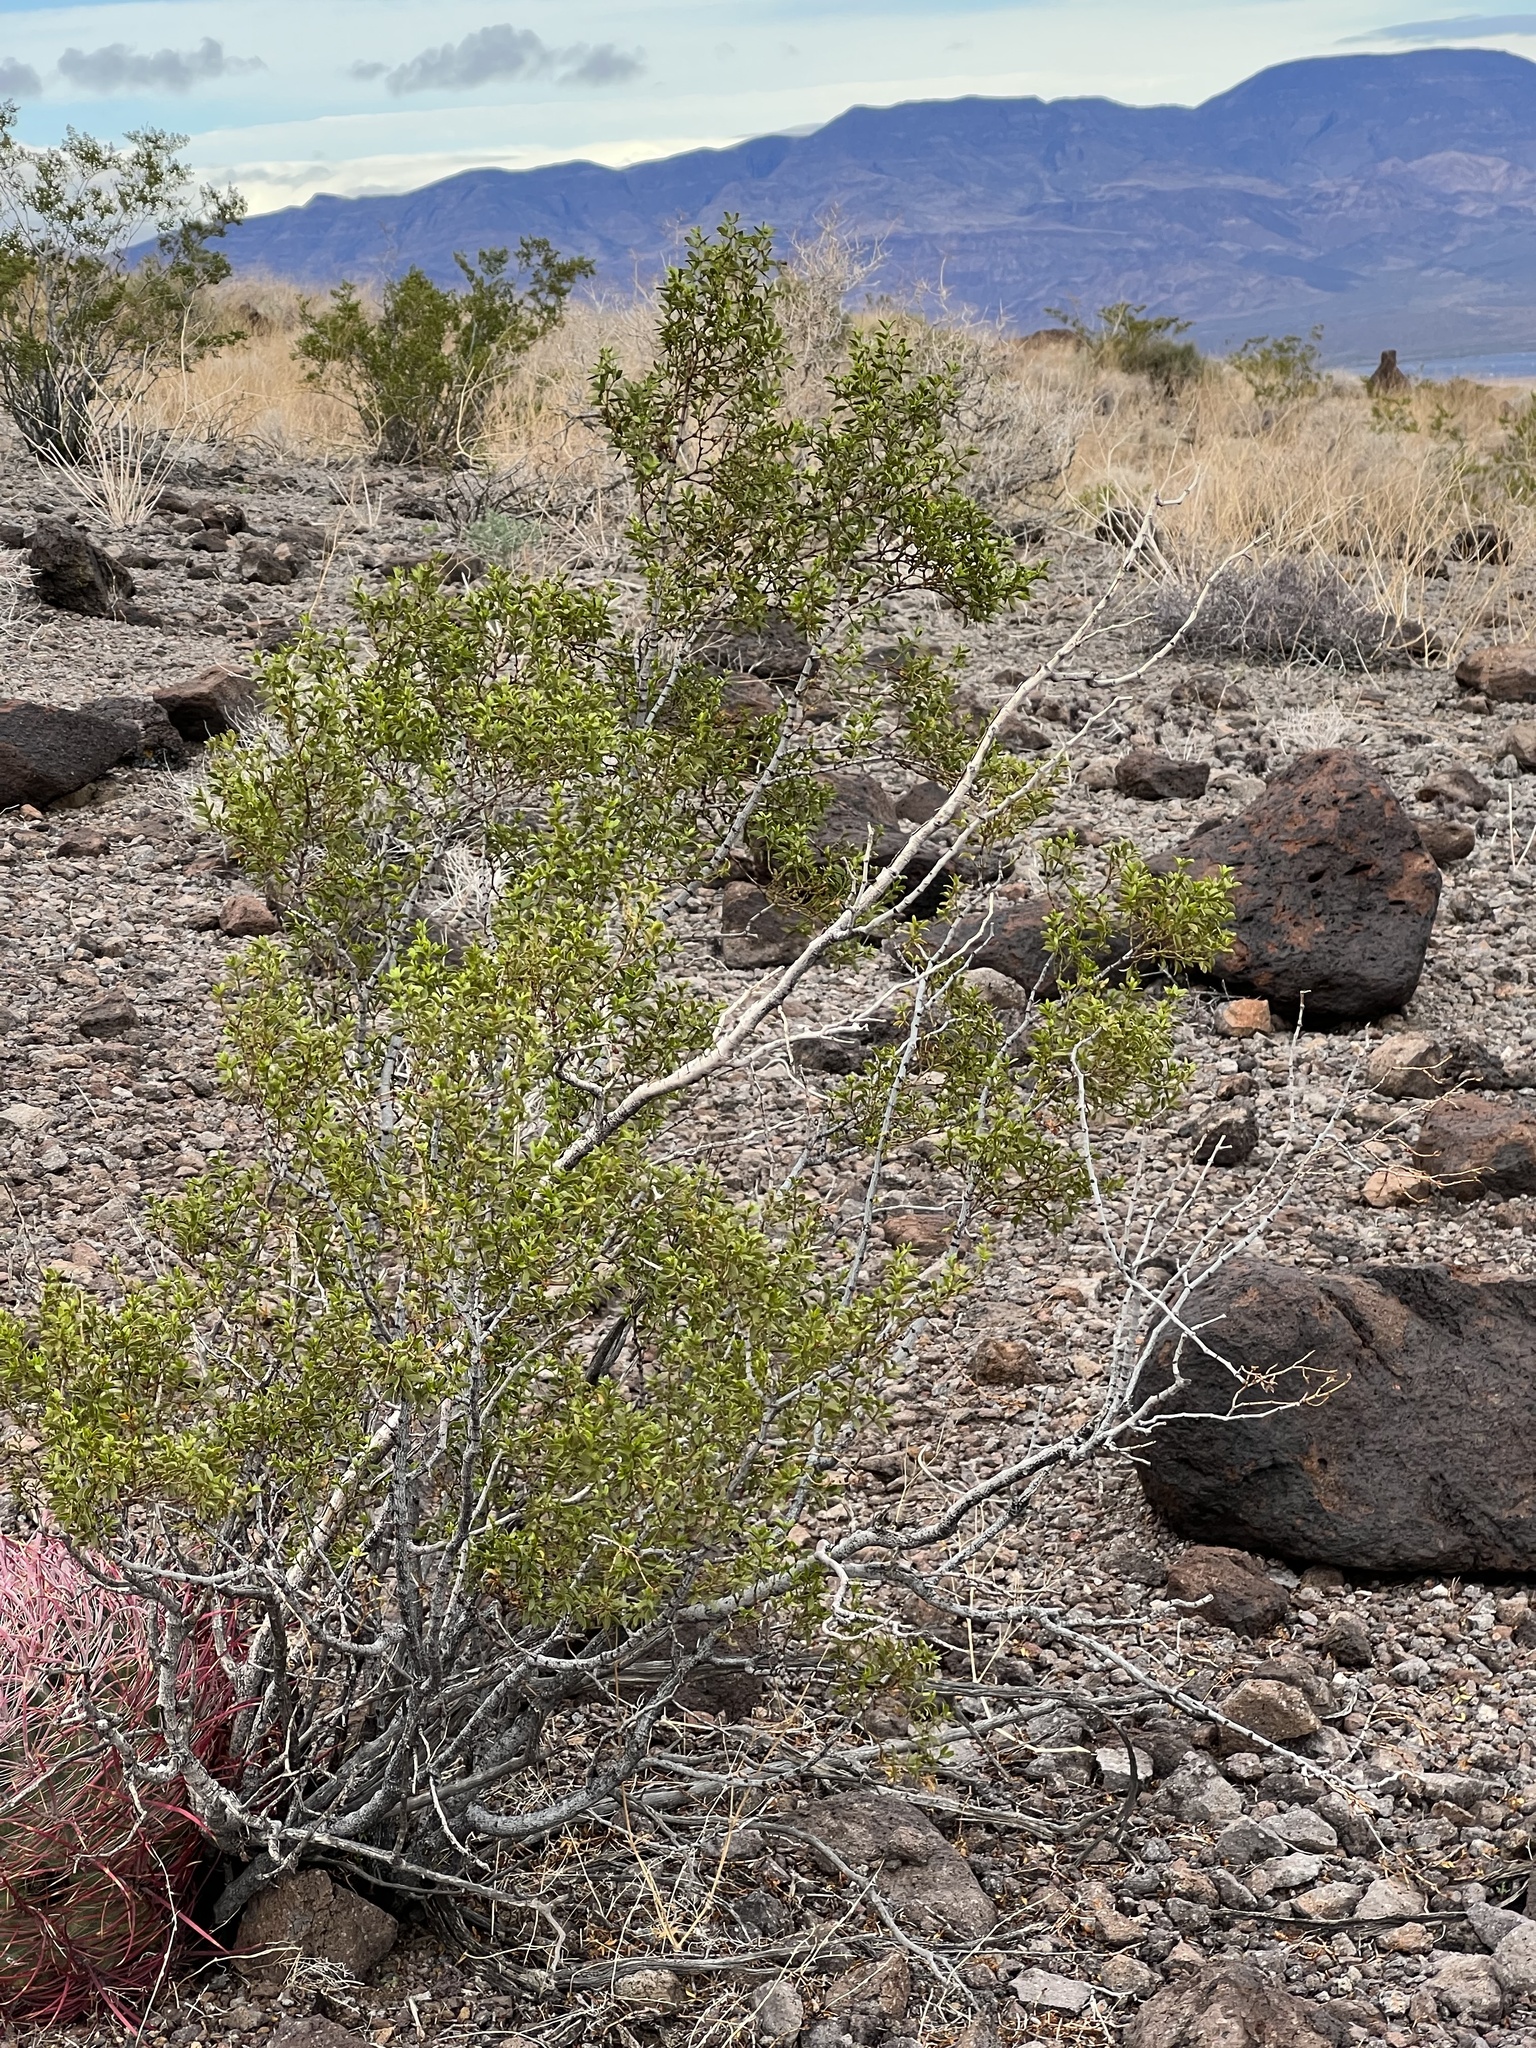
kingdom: Plantae
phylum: Tracheophyta
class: Magnoliopsida
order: Zygophyllales
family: Zygophyllaceae
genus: Larrea
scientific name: Larrea tridentata
